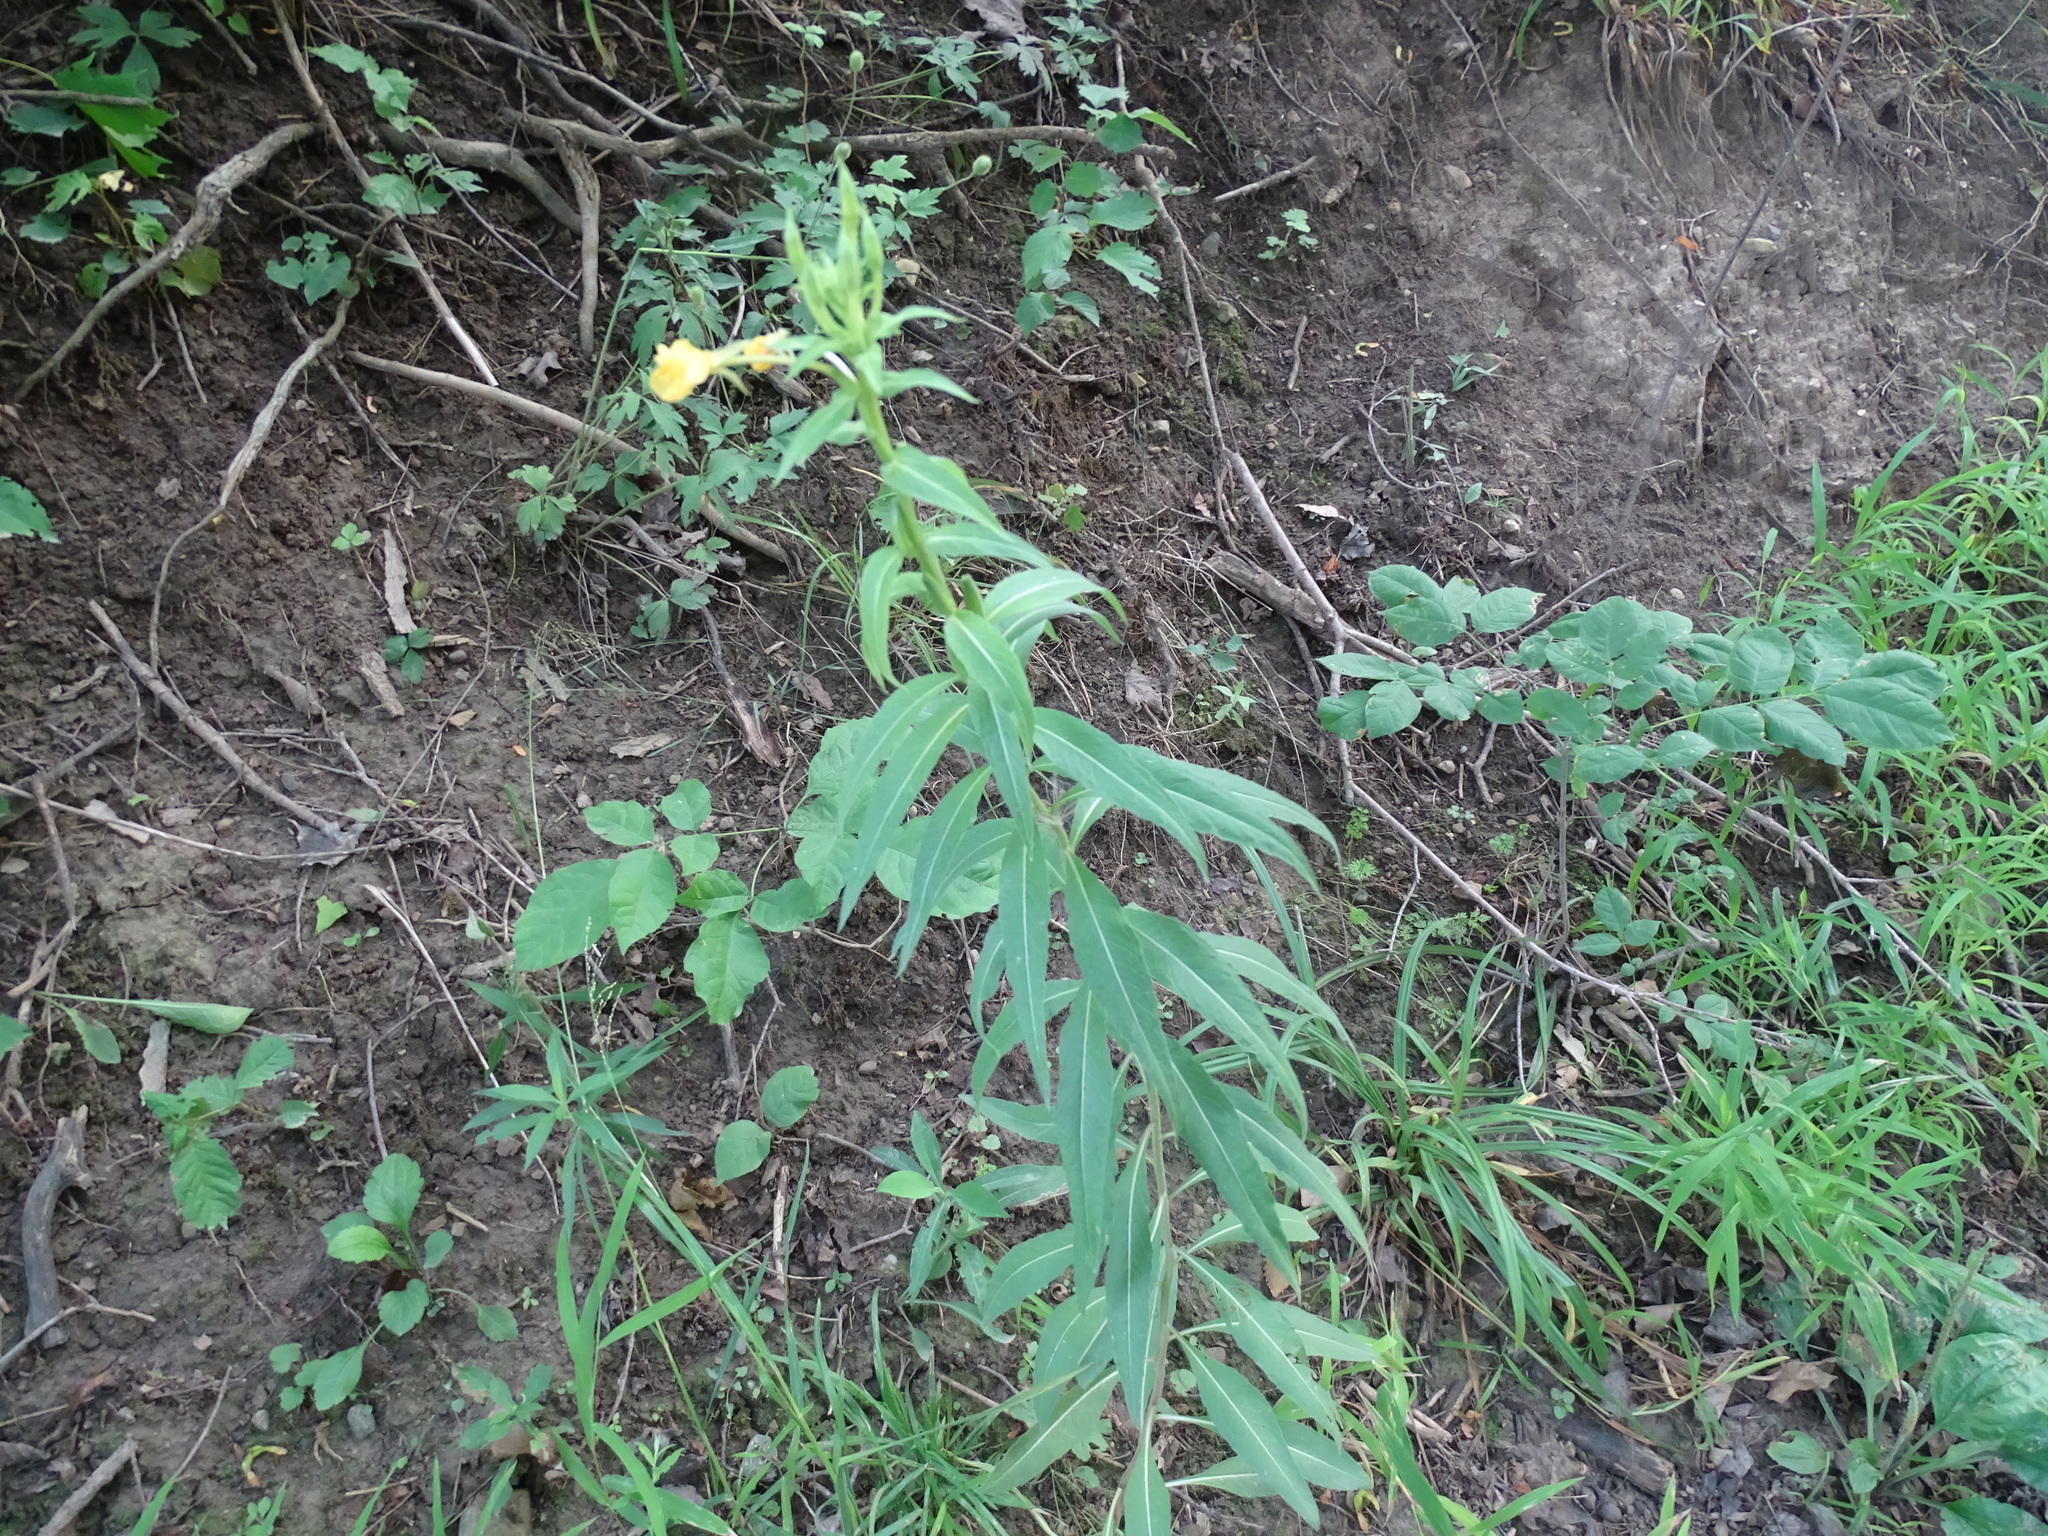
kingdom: Plantae
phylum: Tracheophyta
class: Magnoliopsida
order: Myrtales
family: Onagraceae
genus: Oenothera
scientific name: Oenothera biennis
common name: Common evening-primrose
